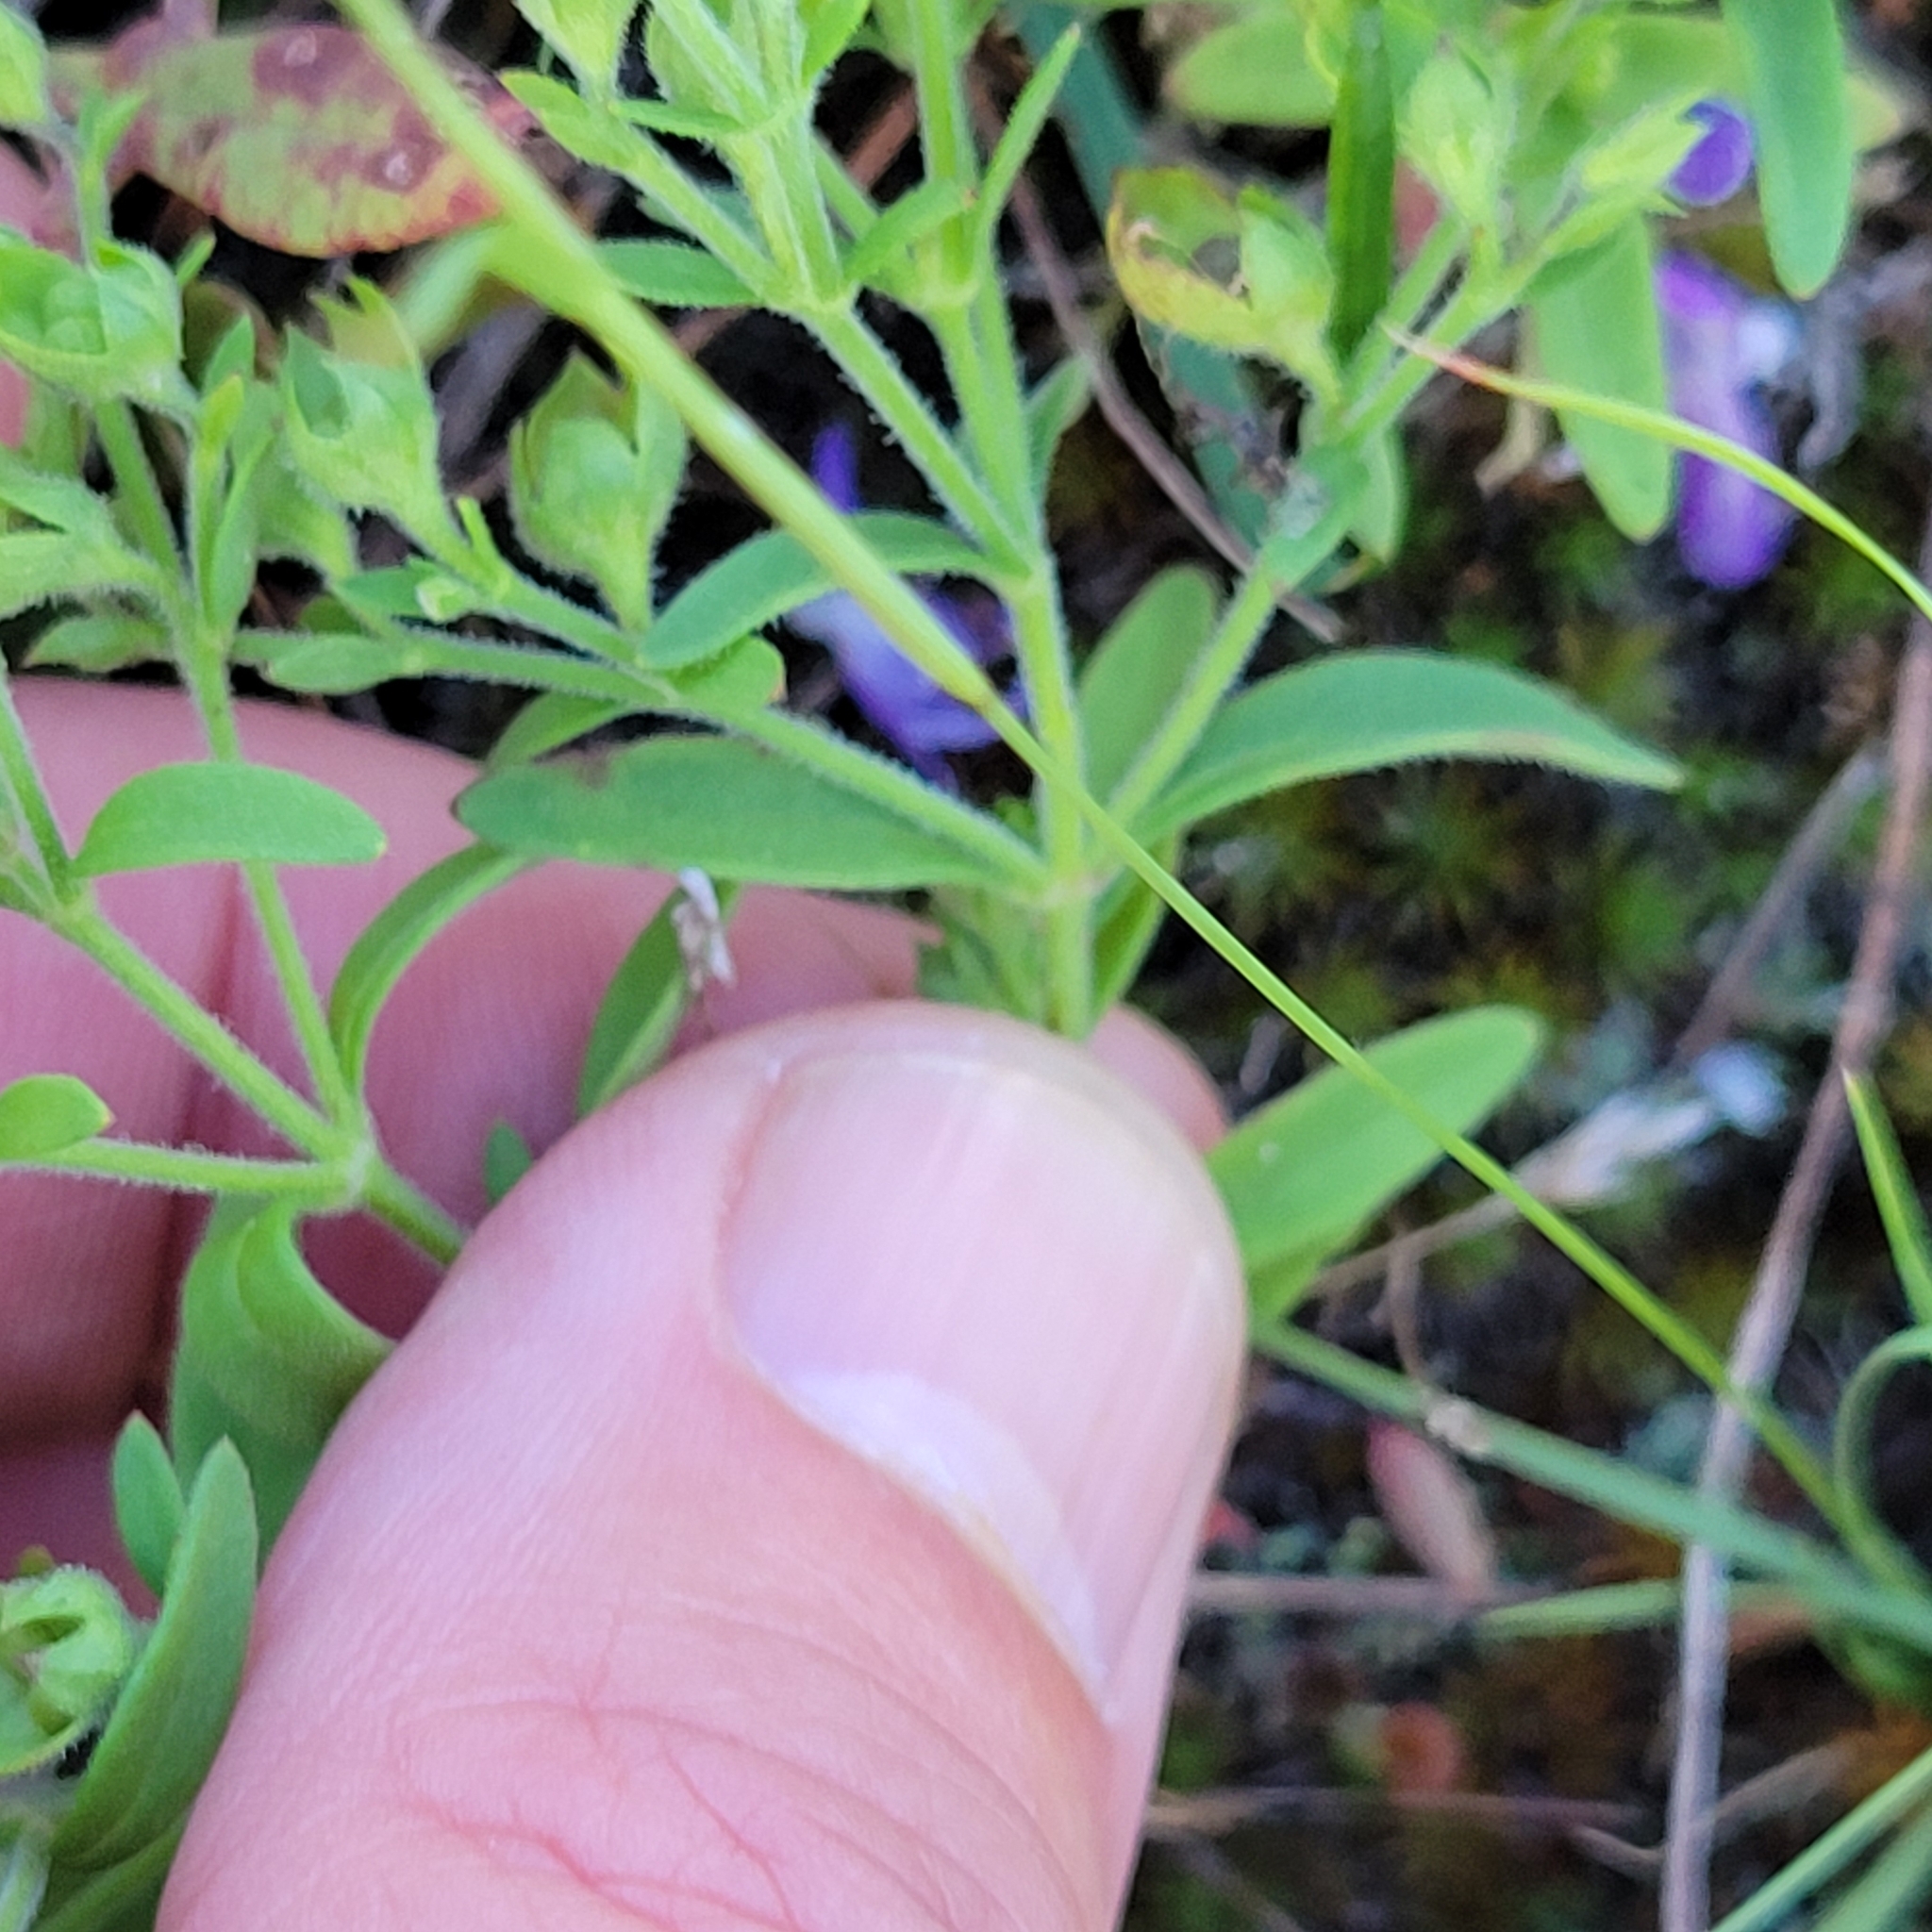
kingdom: Plantae
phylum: Tracheophyta
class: Magnoliopsida
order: Lamiales
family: Lamiaceae
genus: Trichostema
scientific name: Trichostema dichotomum
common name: Bastard pennyroyal
